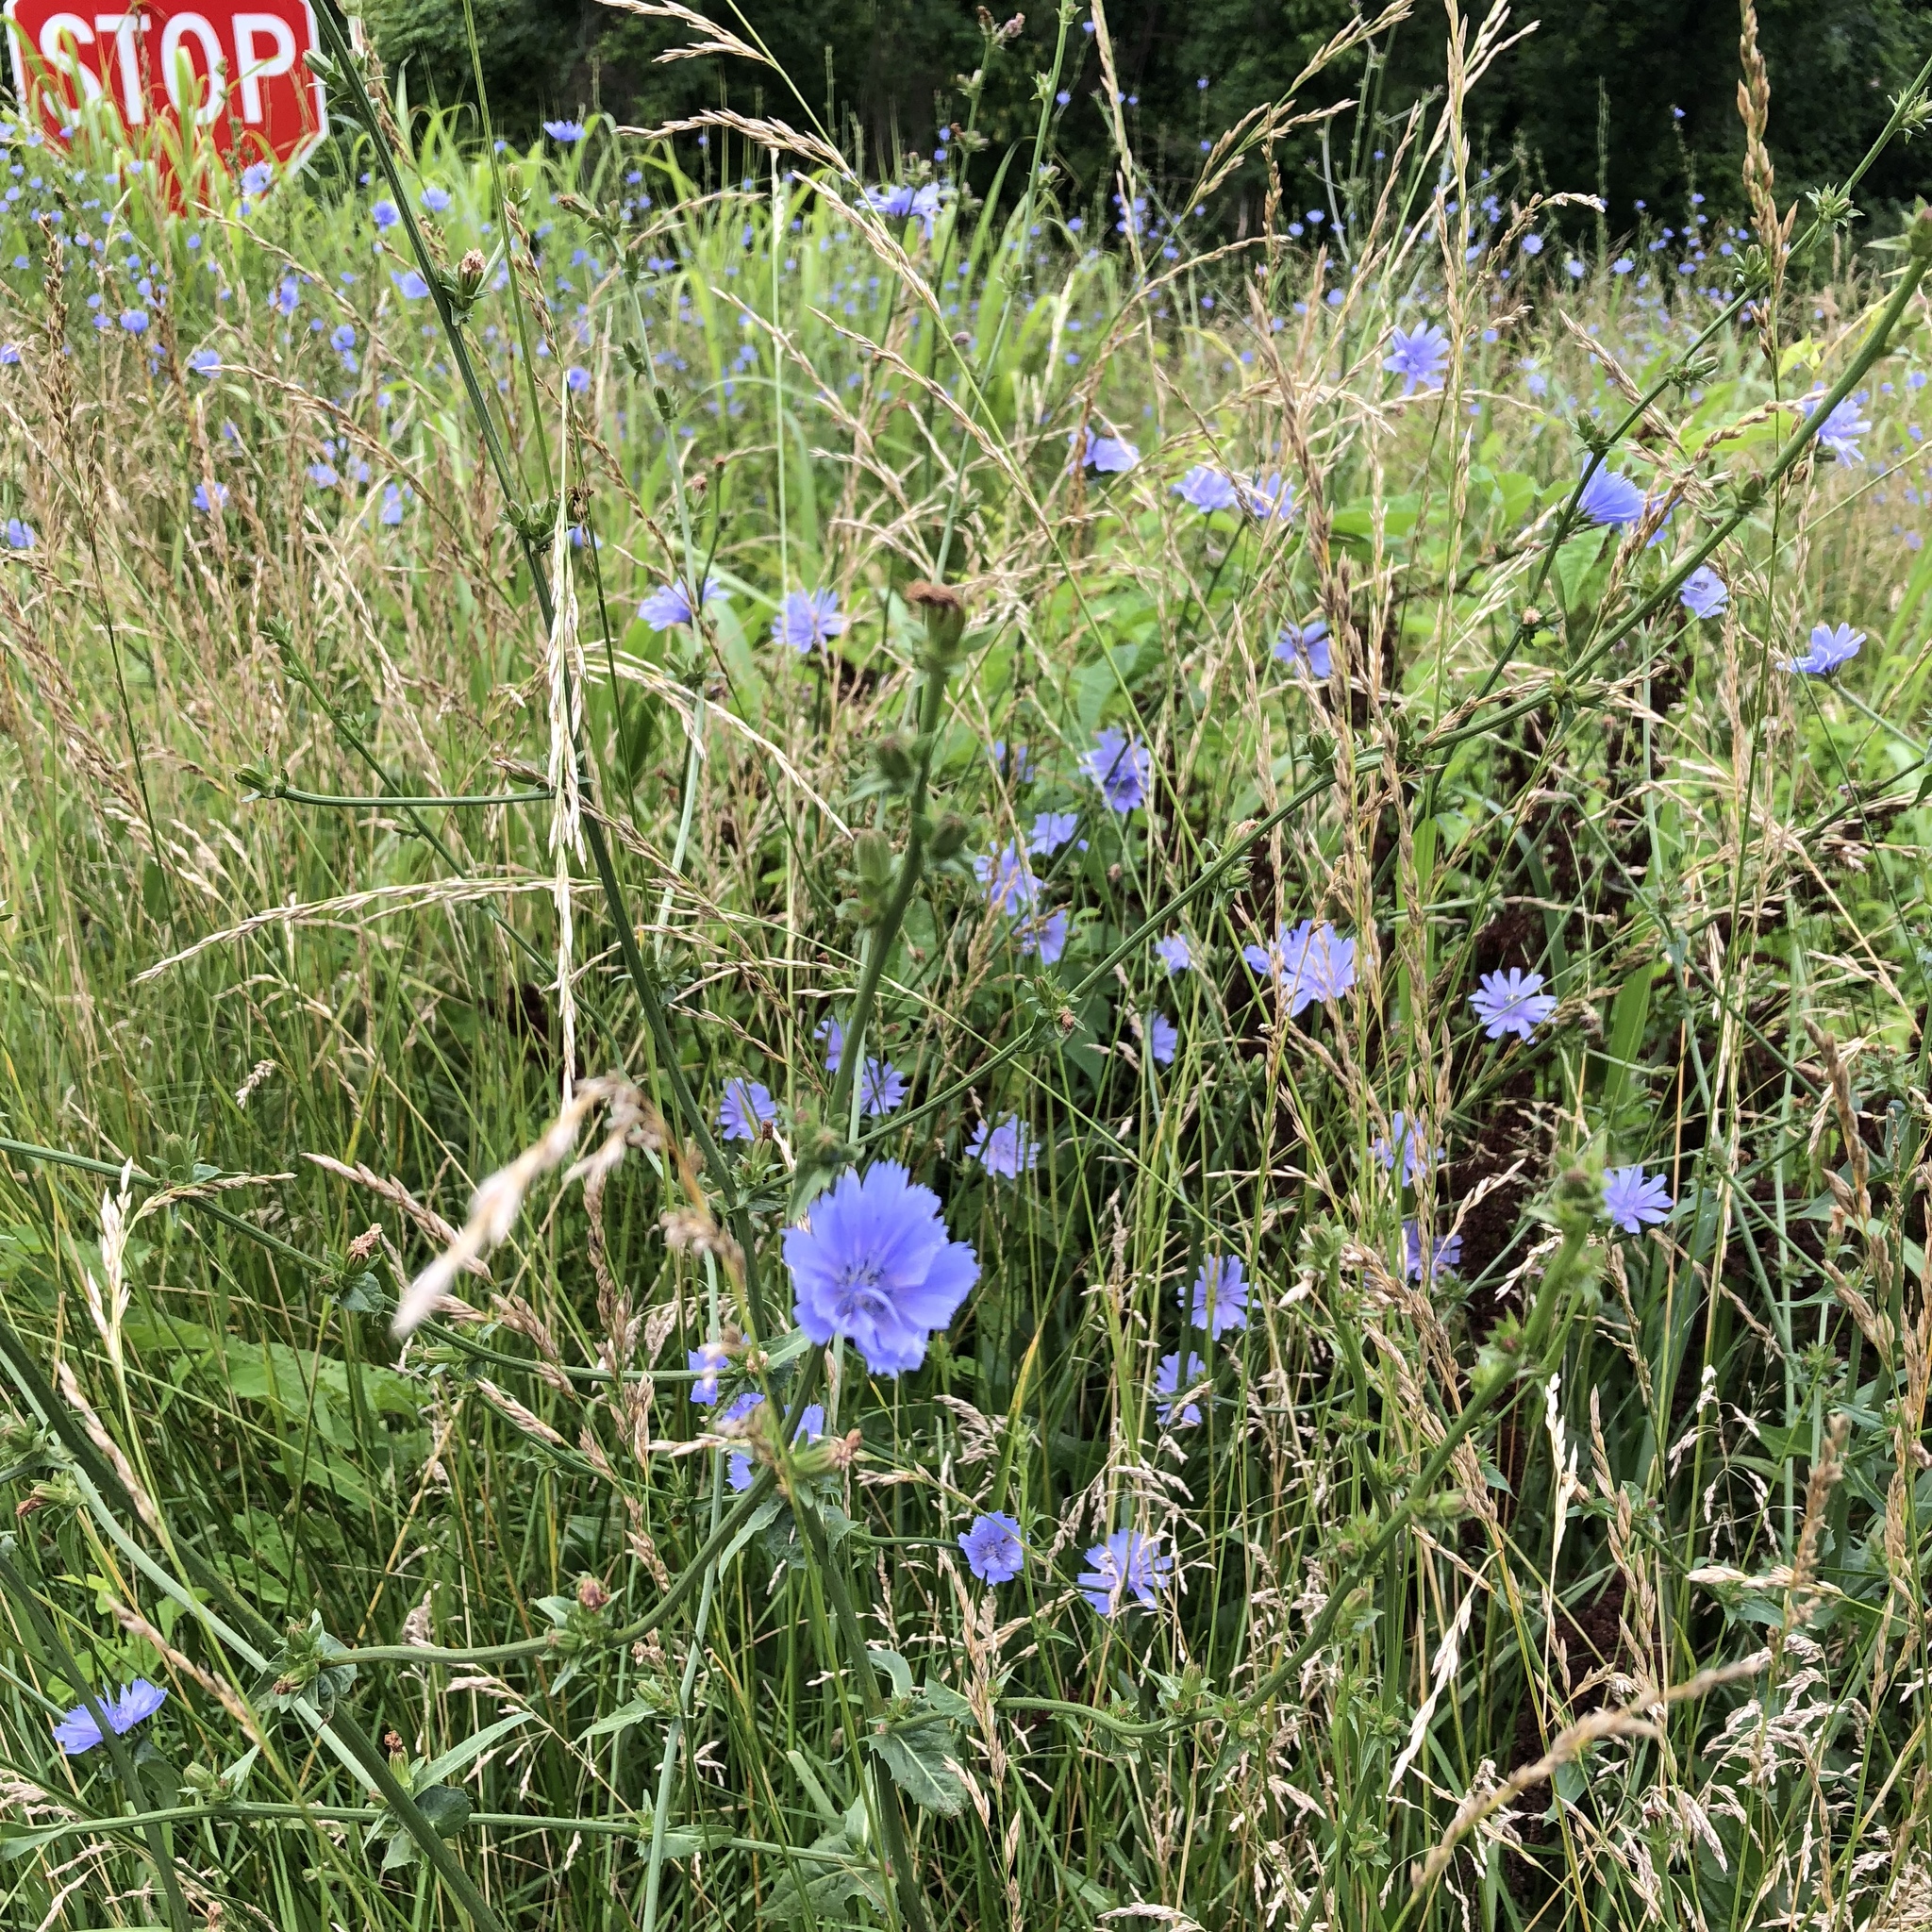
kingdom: Plantae
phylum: Tracheophyta
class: Magnoliopsida
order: Asterales
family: Asteraceae
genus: Cichorium
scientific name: Cichorium intybus
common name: Chicory
